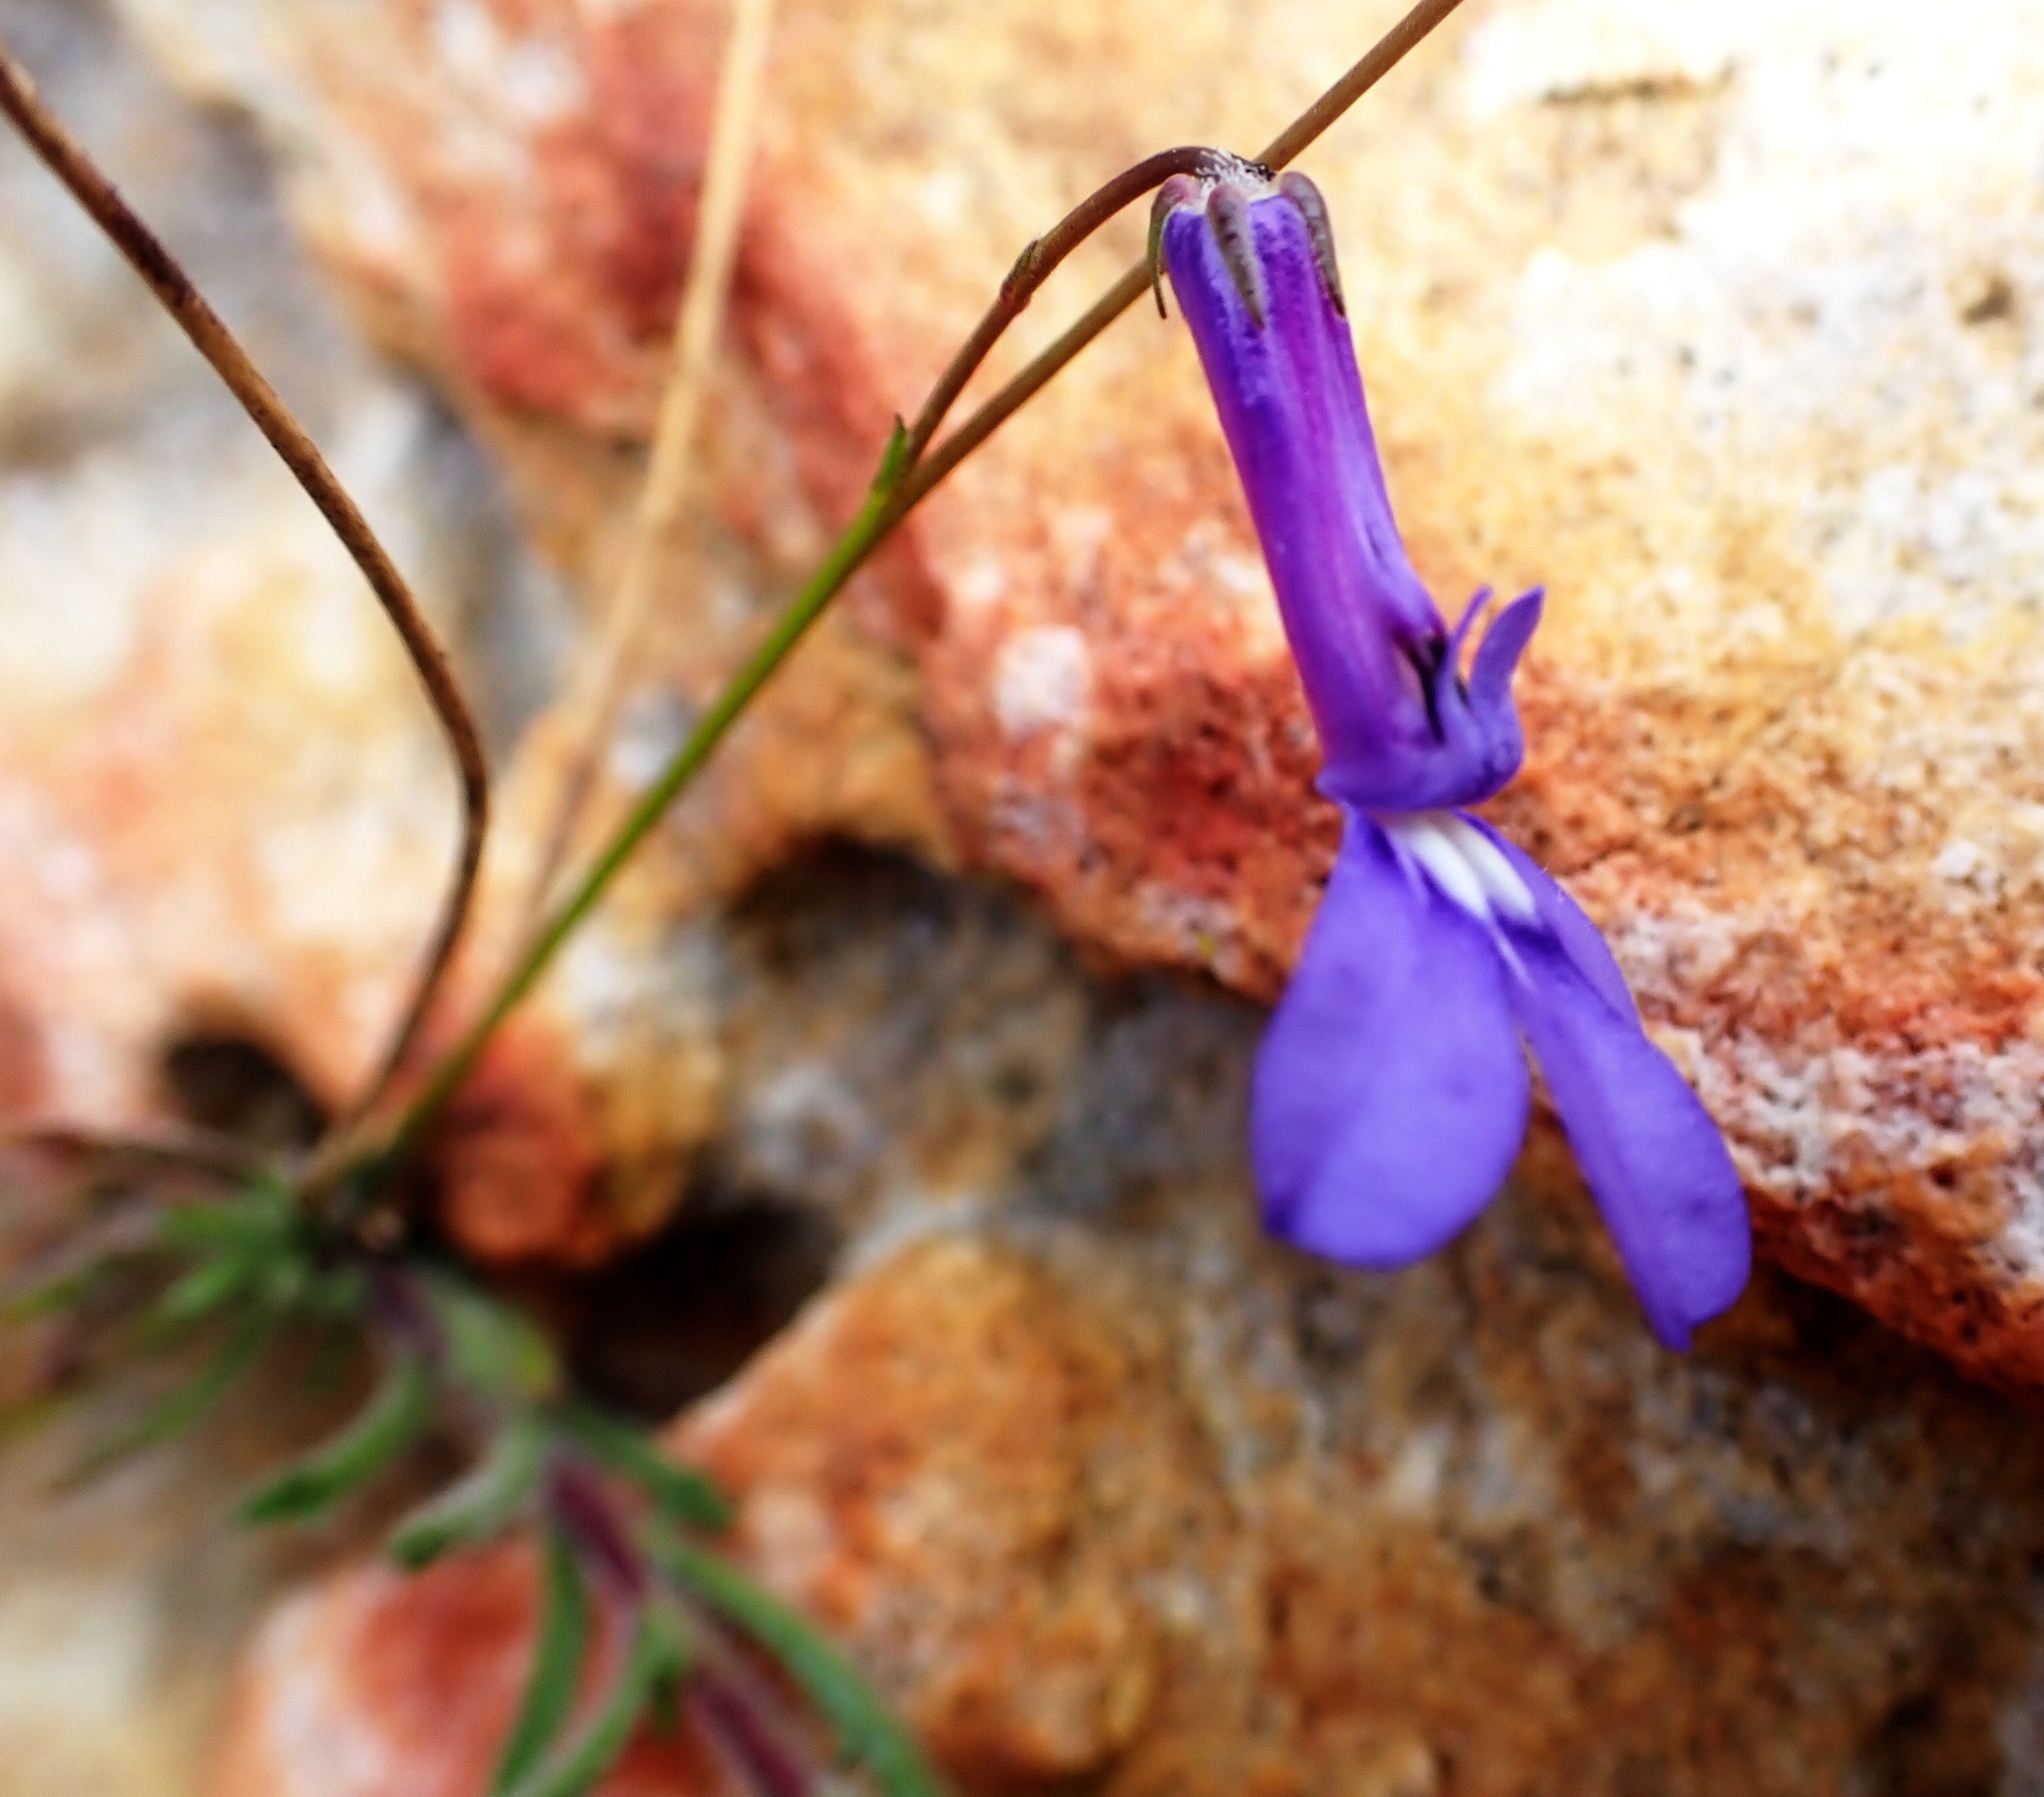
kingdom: Plantae
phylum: Tracheophyta
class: Magnoliopsida
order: Asterales
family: Campanulaceae
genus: Lobelia
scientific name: Lobelia tomentosa
